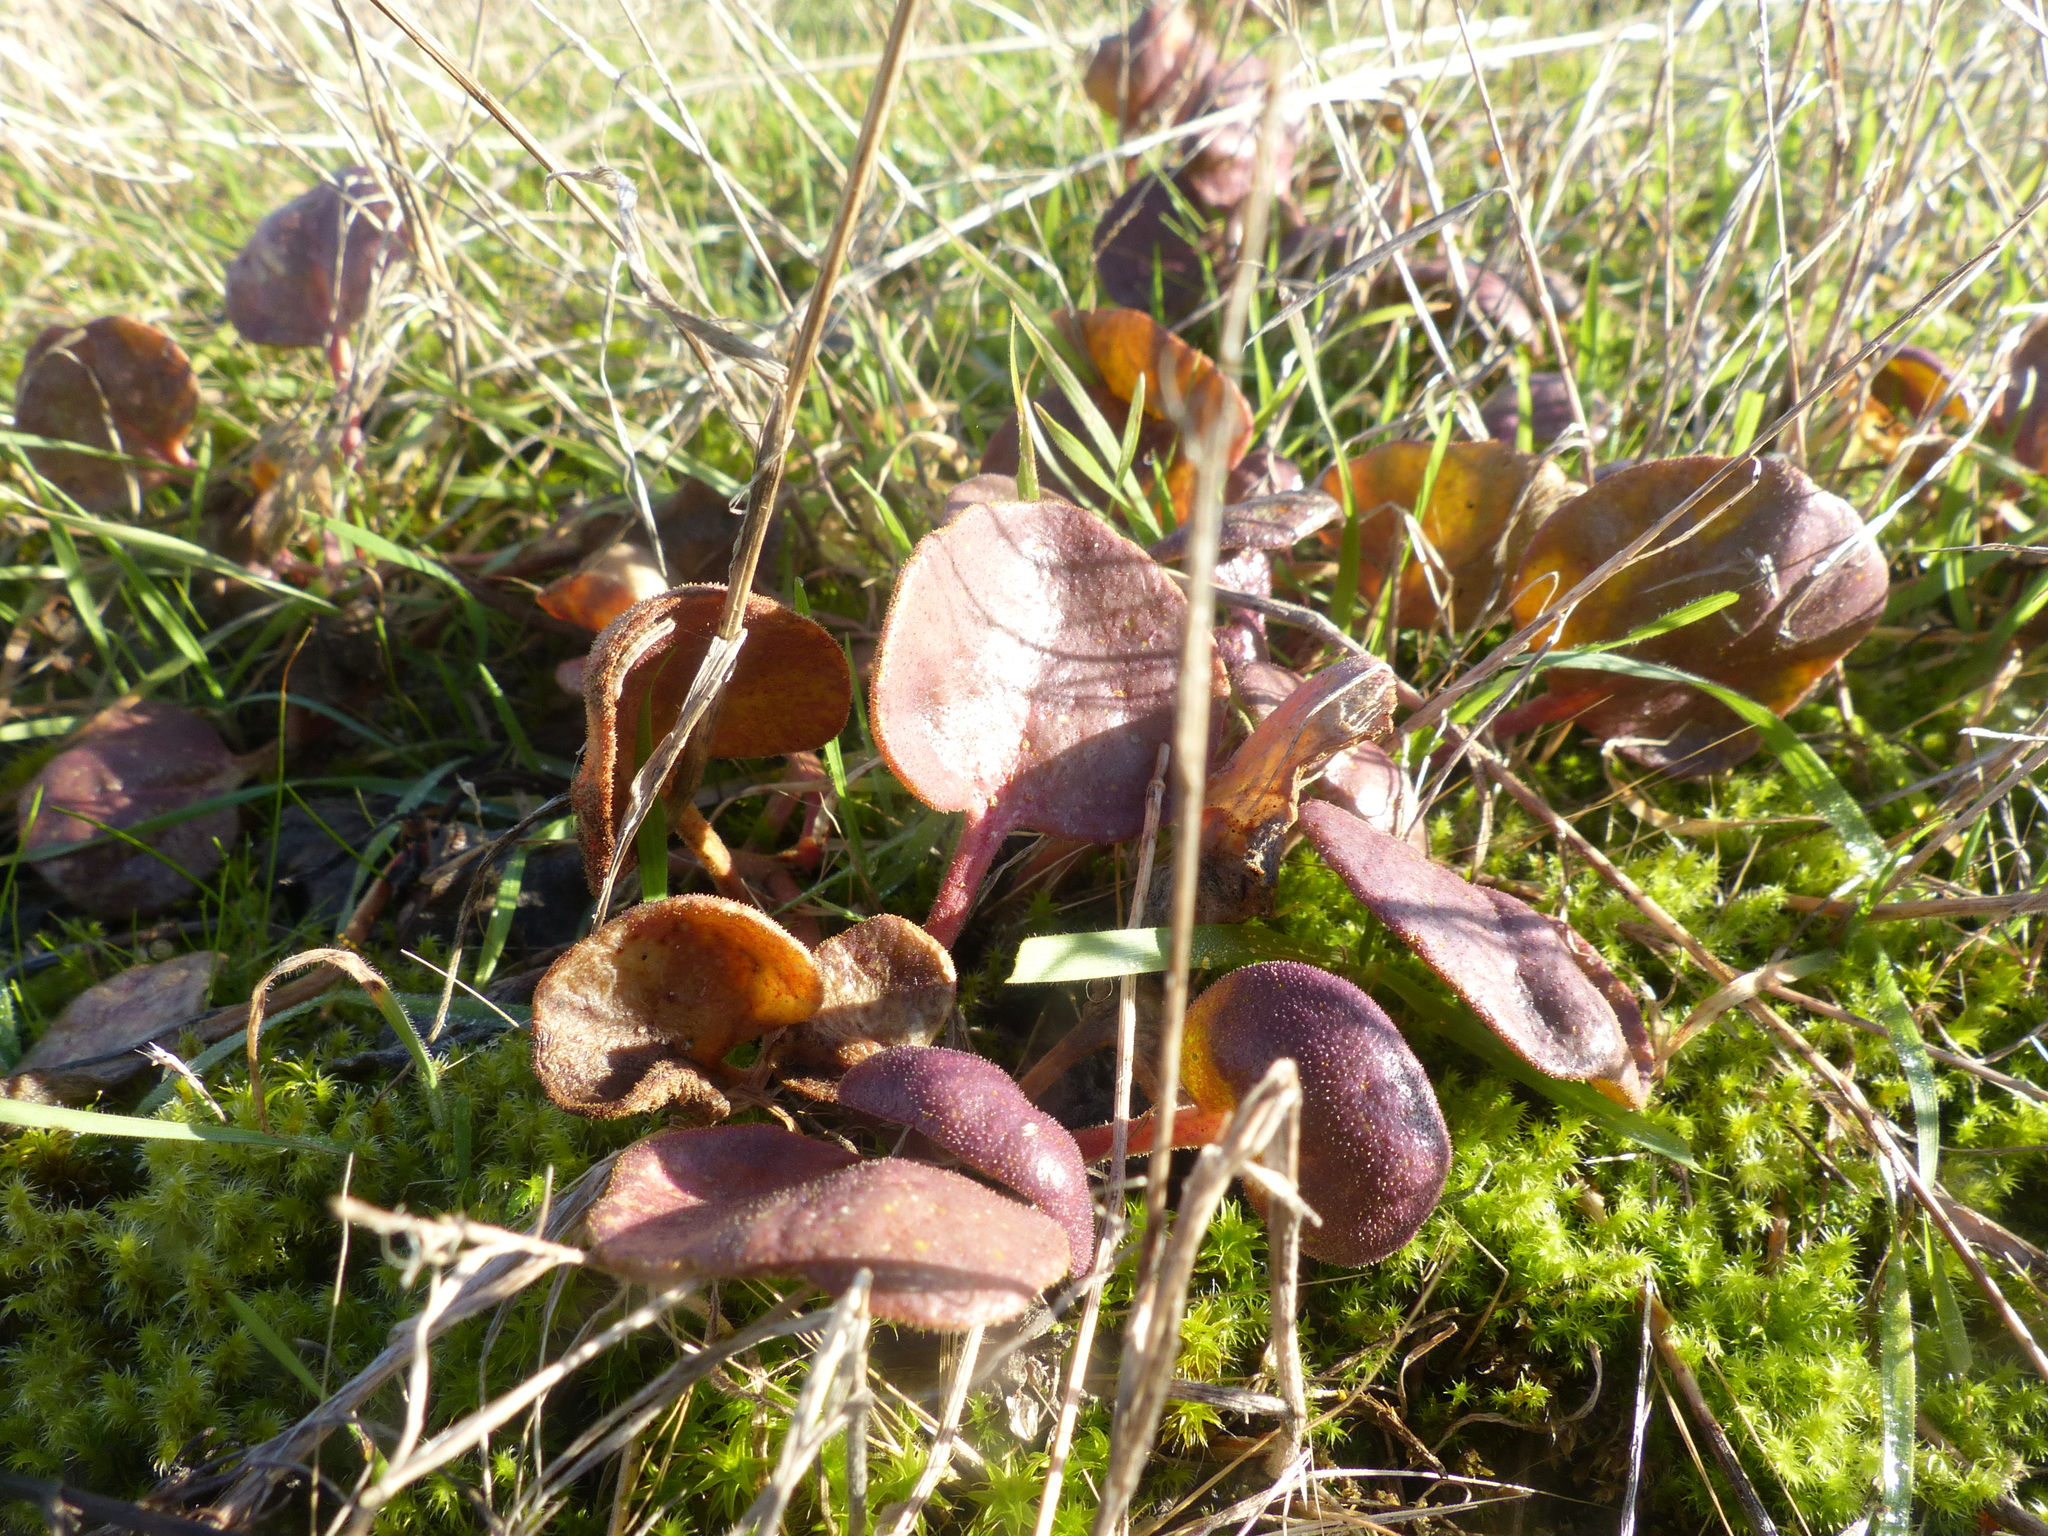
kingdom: Plantae
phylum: Tracheophyta
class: Magnoliopsida
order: Caryophyllales
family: Nyctaginaceae
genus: Abronia
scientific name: Abronia latifolia
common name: Yellow sand-verbena
